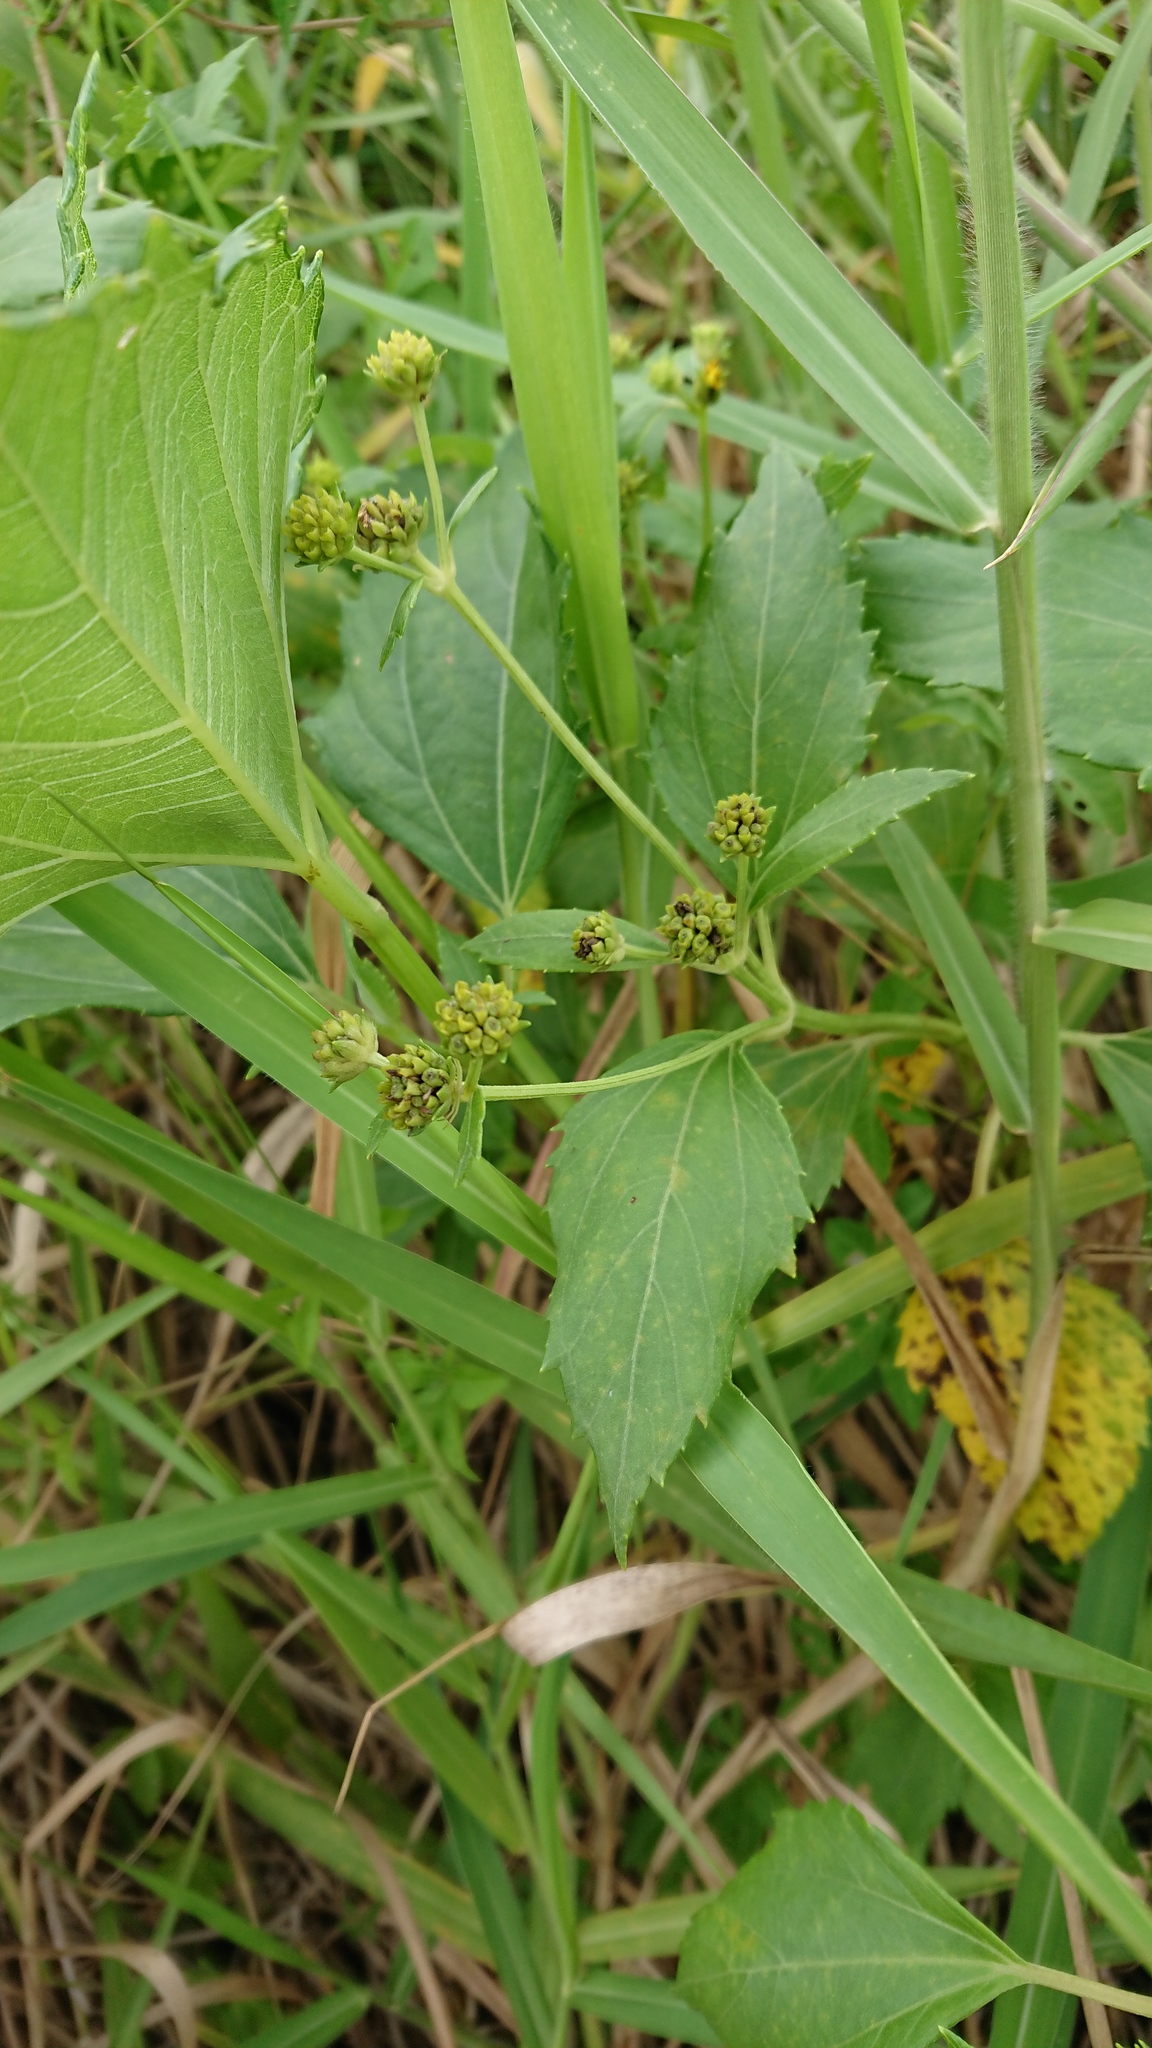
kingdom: Plantae
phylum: Tracheophyta
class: Magnoliopsida
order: Asterales
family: Asteraceae
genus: Wollastonia
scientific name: Wollastonia biflora
